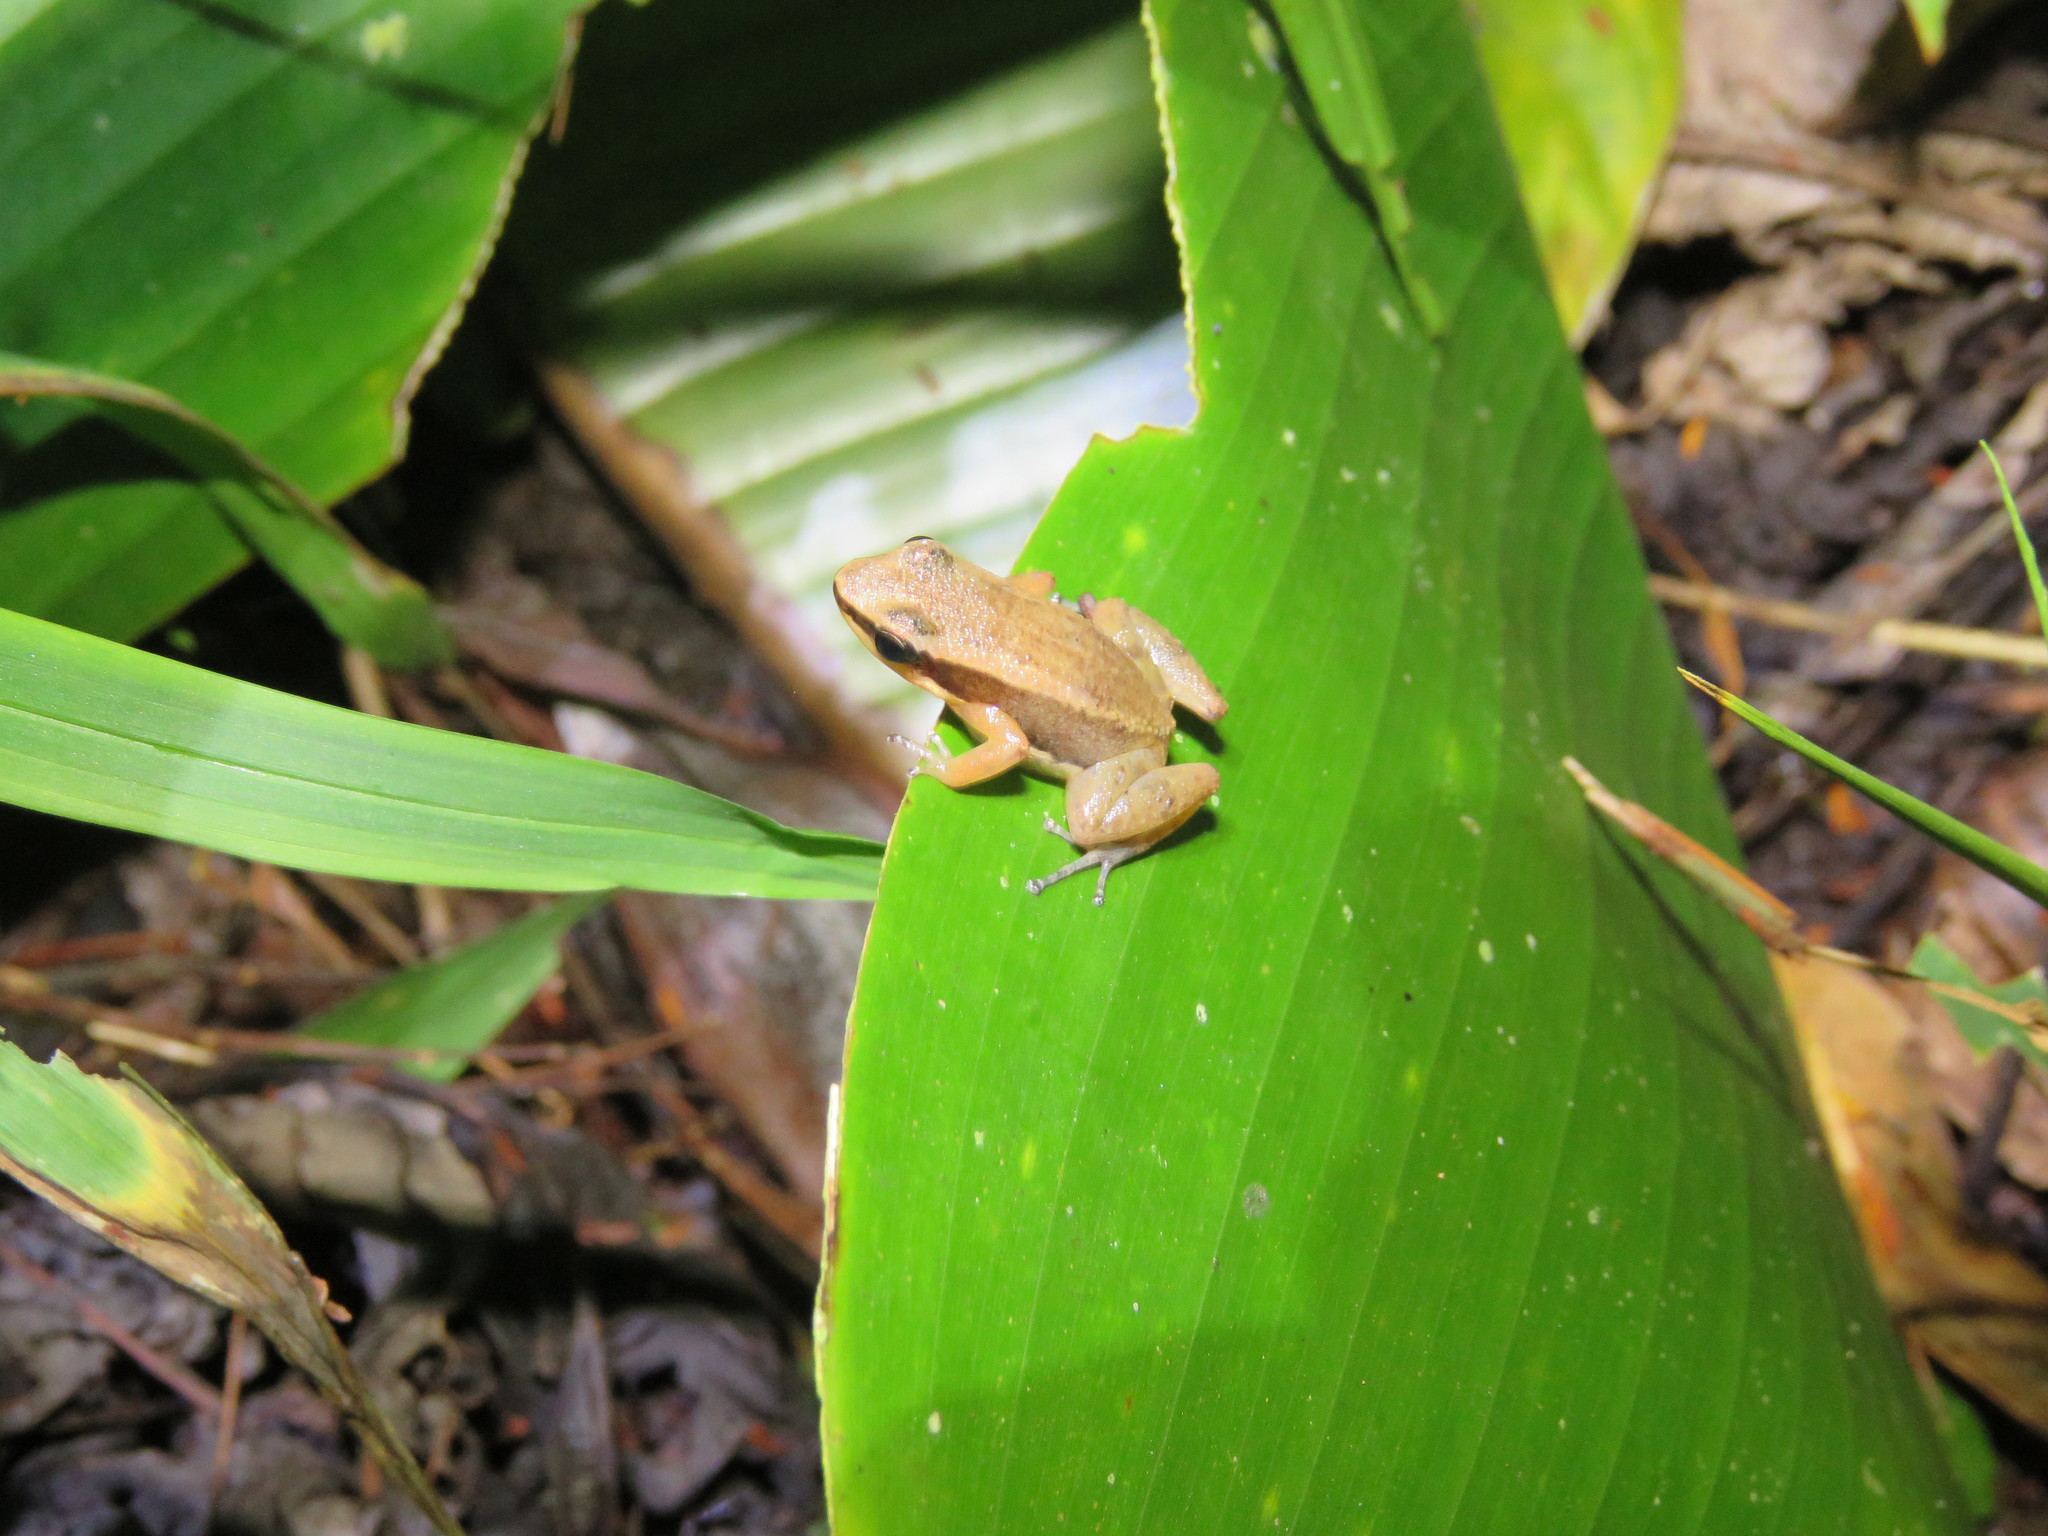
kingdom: Animalia
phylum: Chordata
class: Amphibia
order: Anura
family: Aromobatidae
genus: Allobates
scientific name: Allobates trilineatus
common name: Three-striped rocket frog
